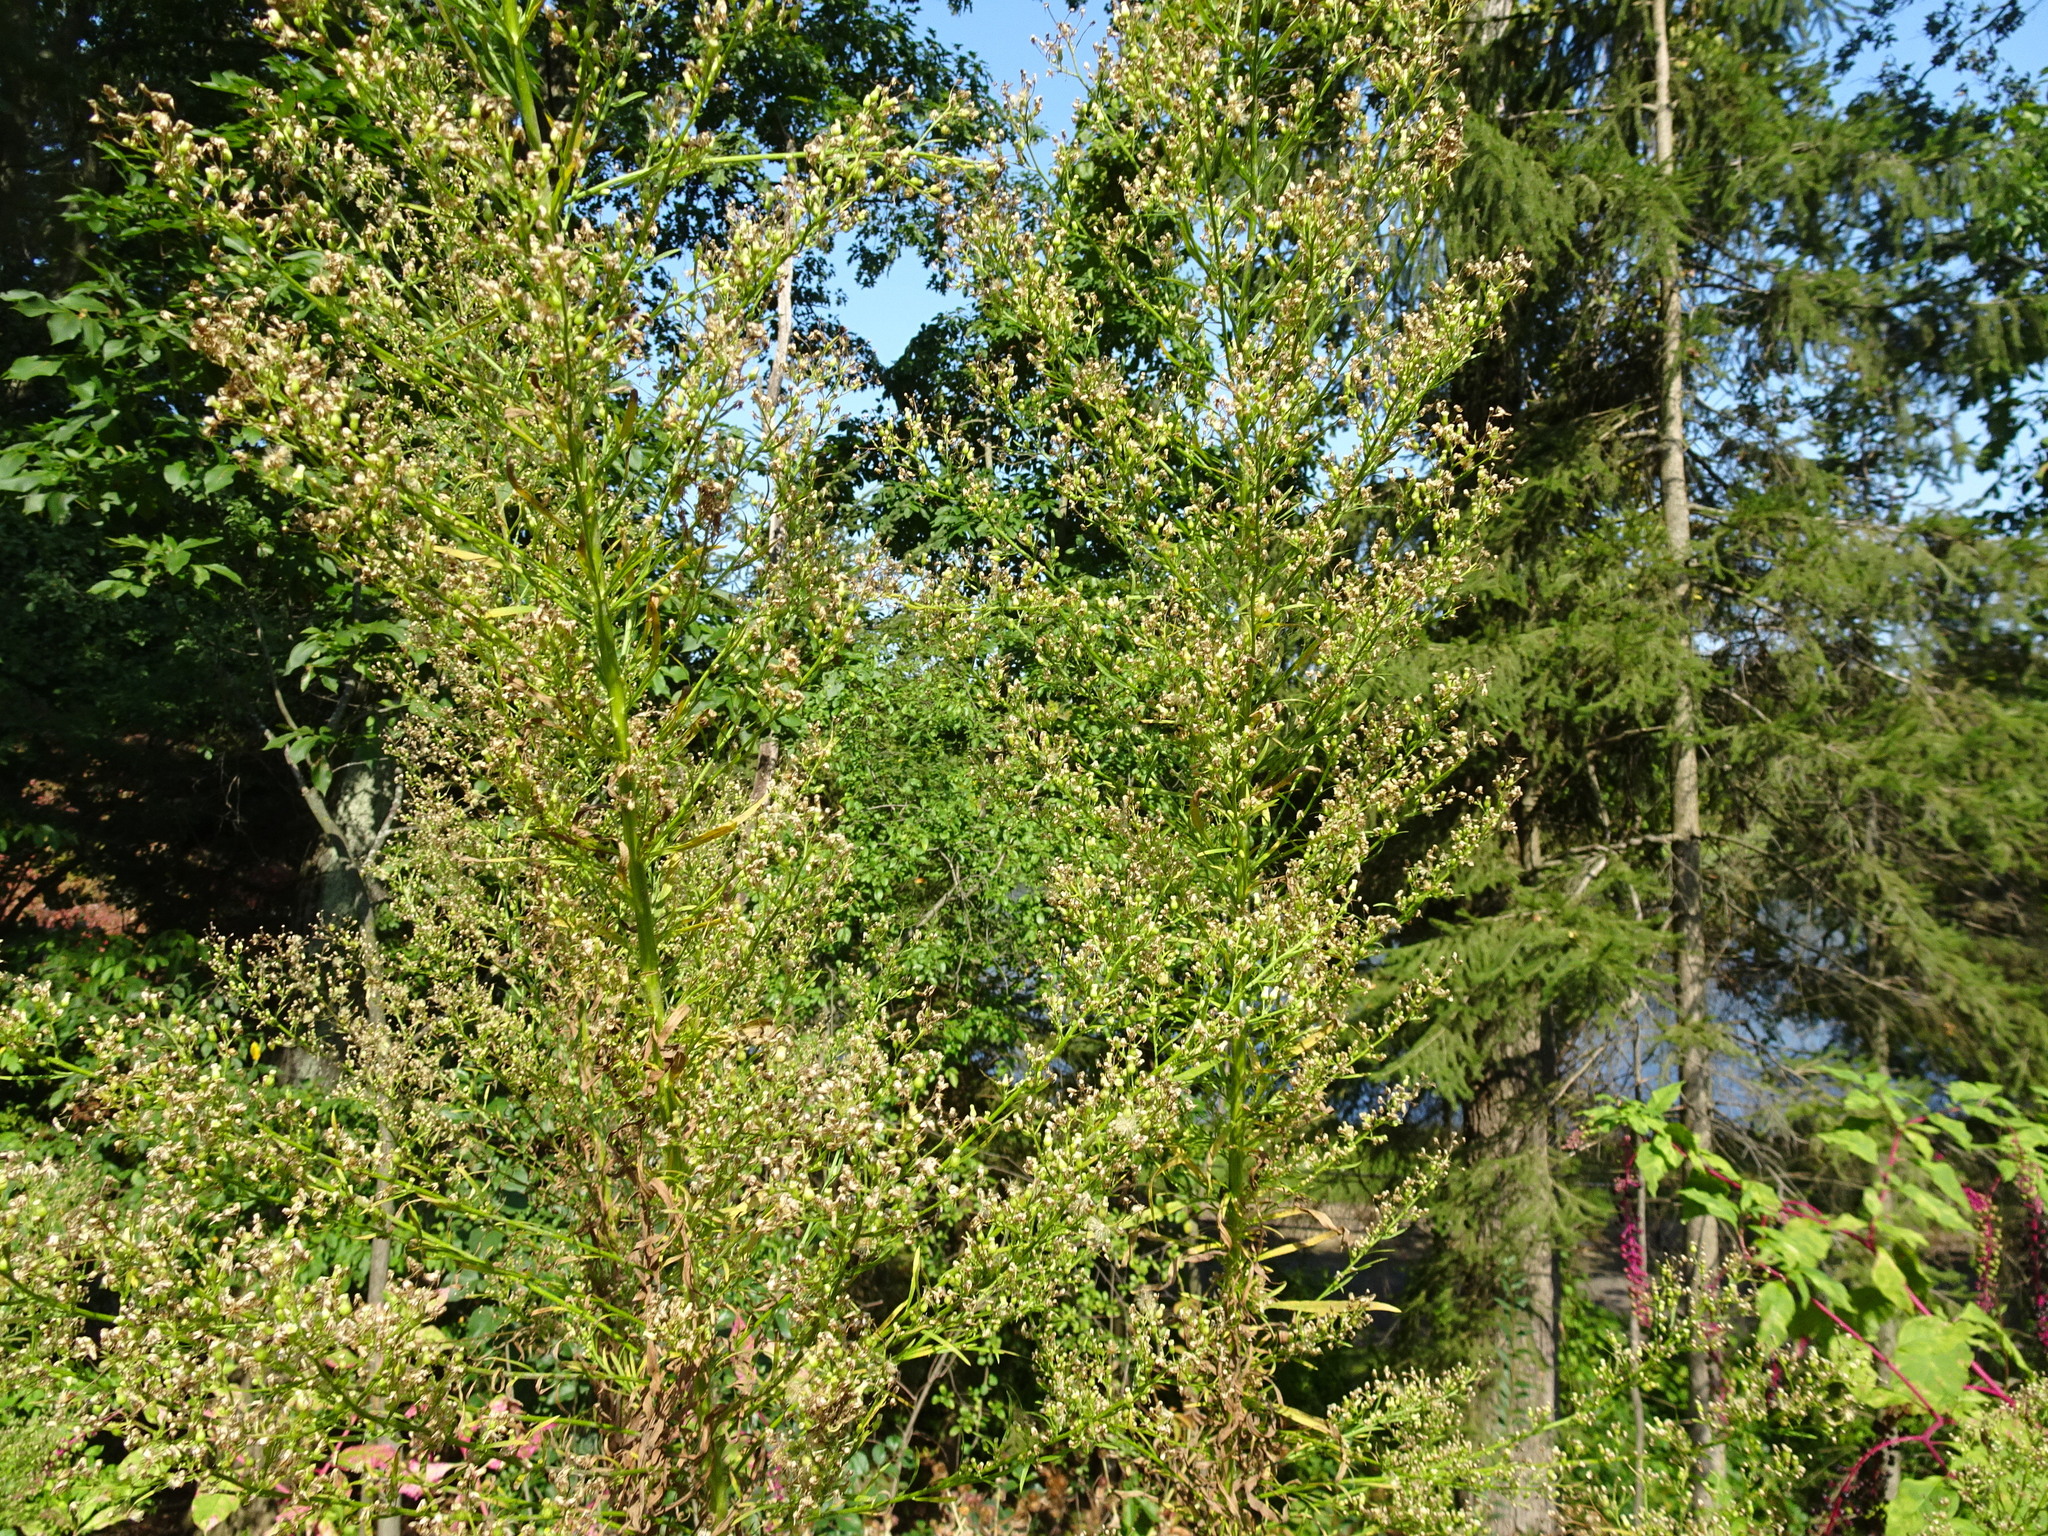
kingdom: Plantae
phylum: Tracheophyta
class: Magnoliopsida
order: Asterales
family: Asteraceae
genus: Erigeron
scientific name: Erigeron canadensis
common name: Canadian fleabane
